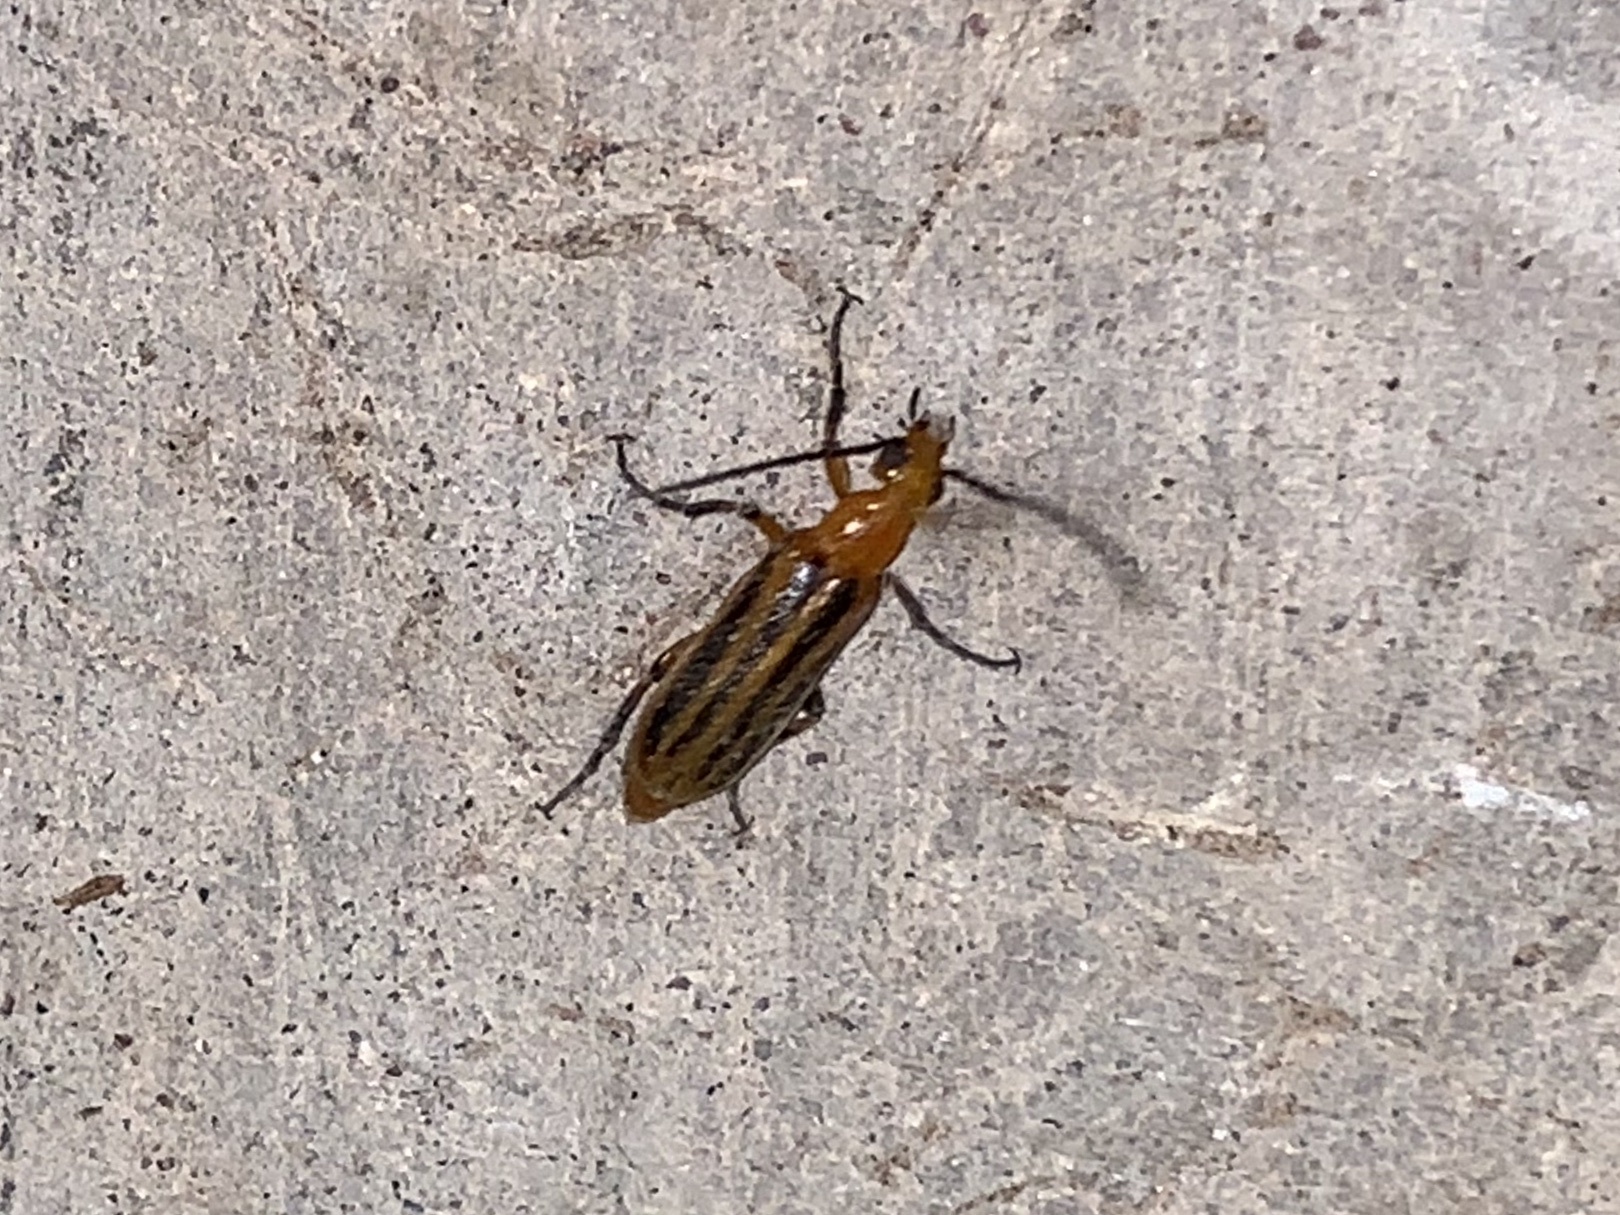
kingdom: Animalia
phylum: Arthropoda
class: Insecta
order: Coleoptera
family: Meloidae
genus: Pseudozonitis
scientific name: Pseudozonitis vittipennis
